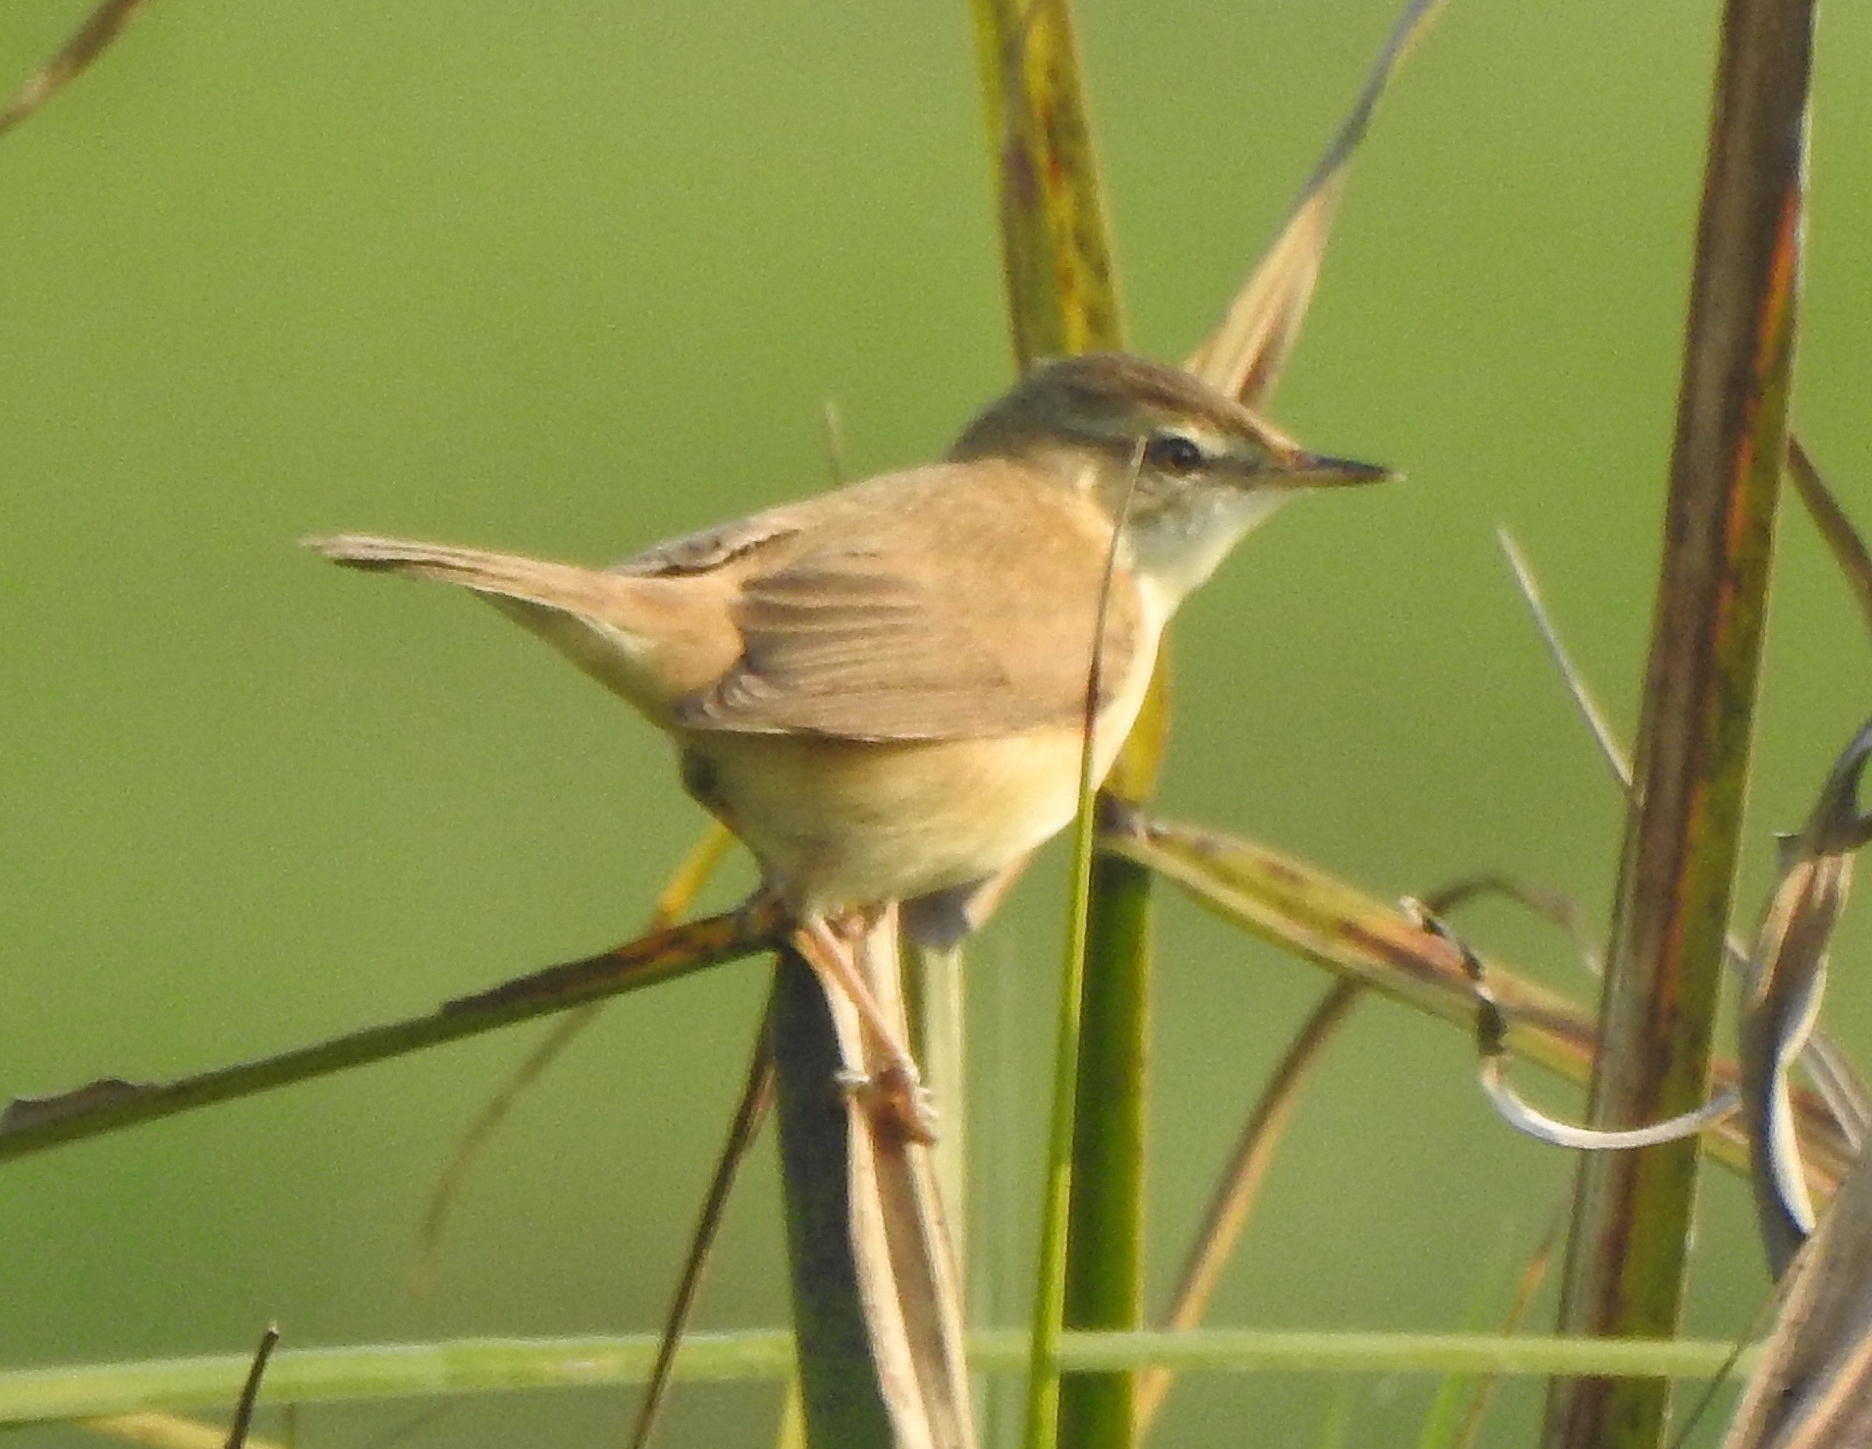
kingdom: Animalia
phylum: Chordata
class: Aves
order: Passeriformes
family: Acrocephalidae
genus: Acrocephalus
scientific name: Acrocephalus agricola
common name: Paddyfield warbler
